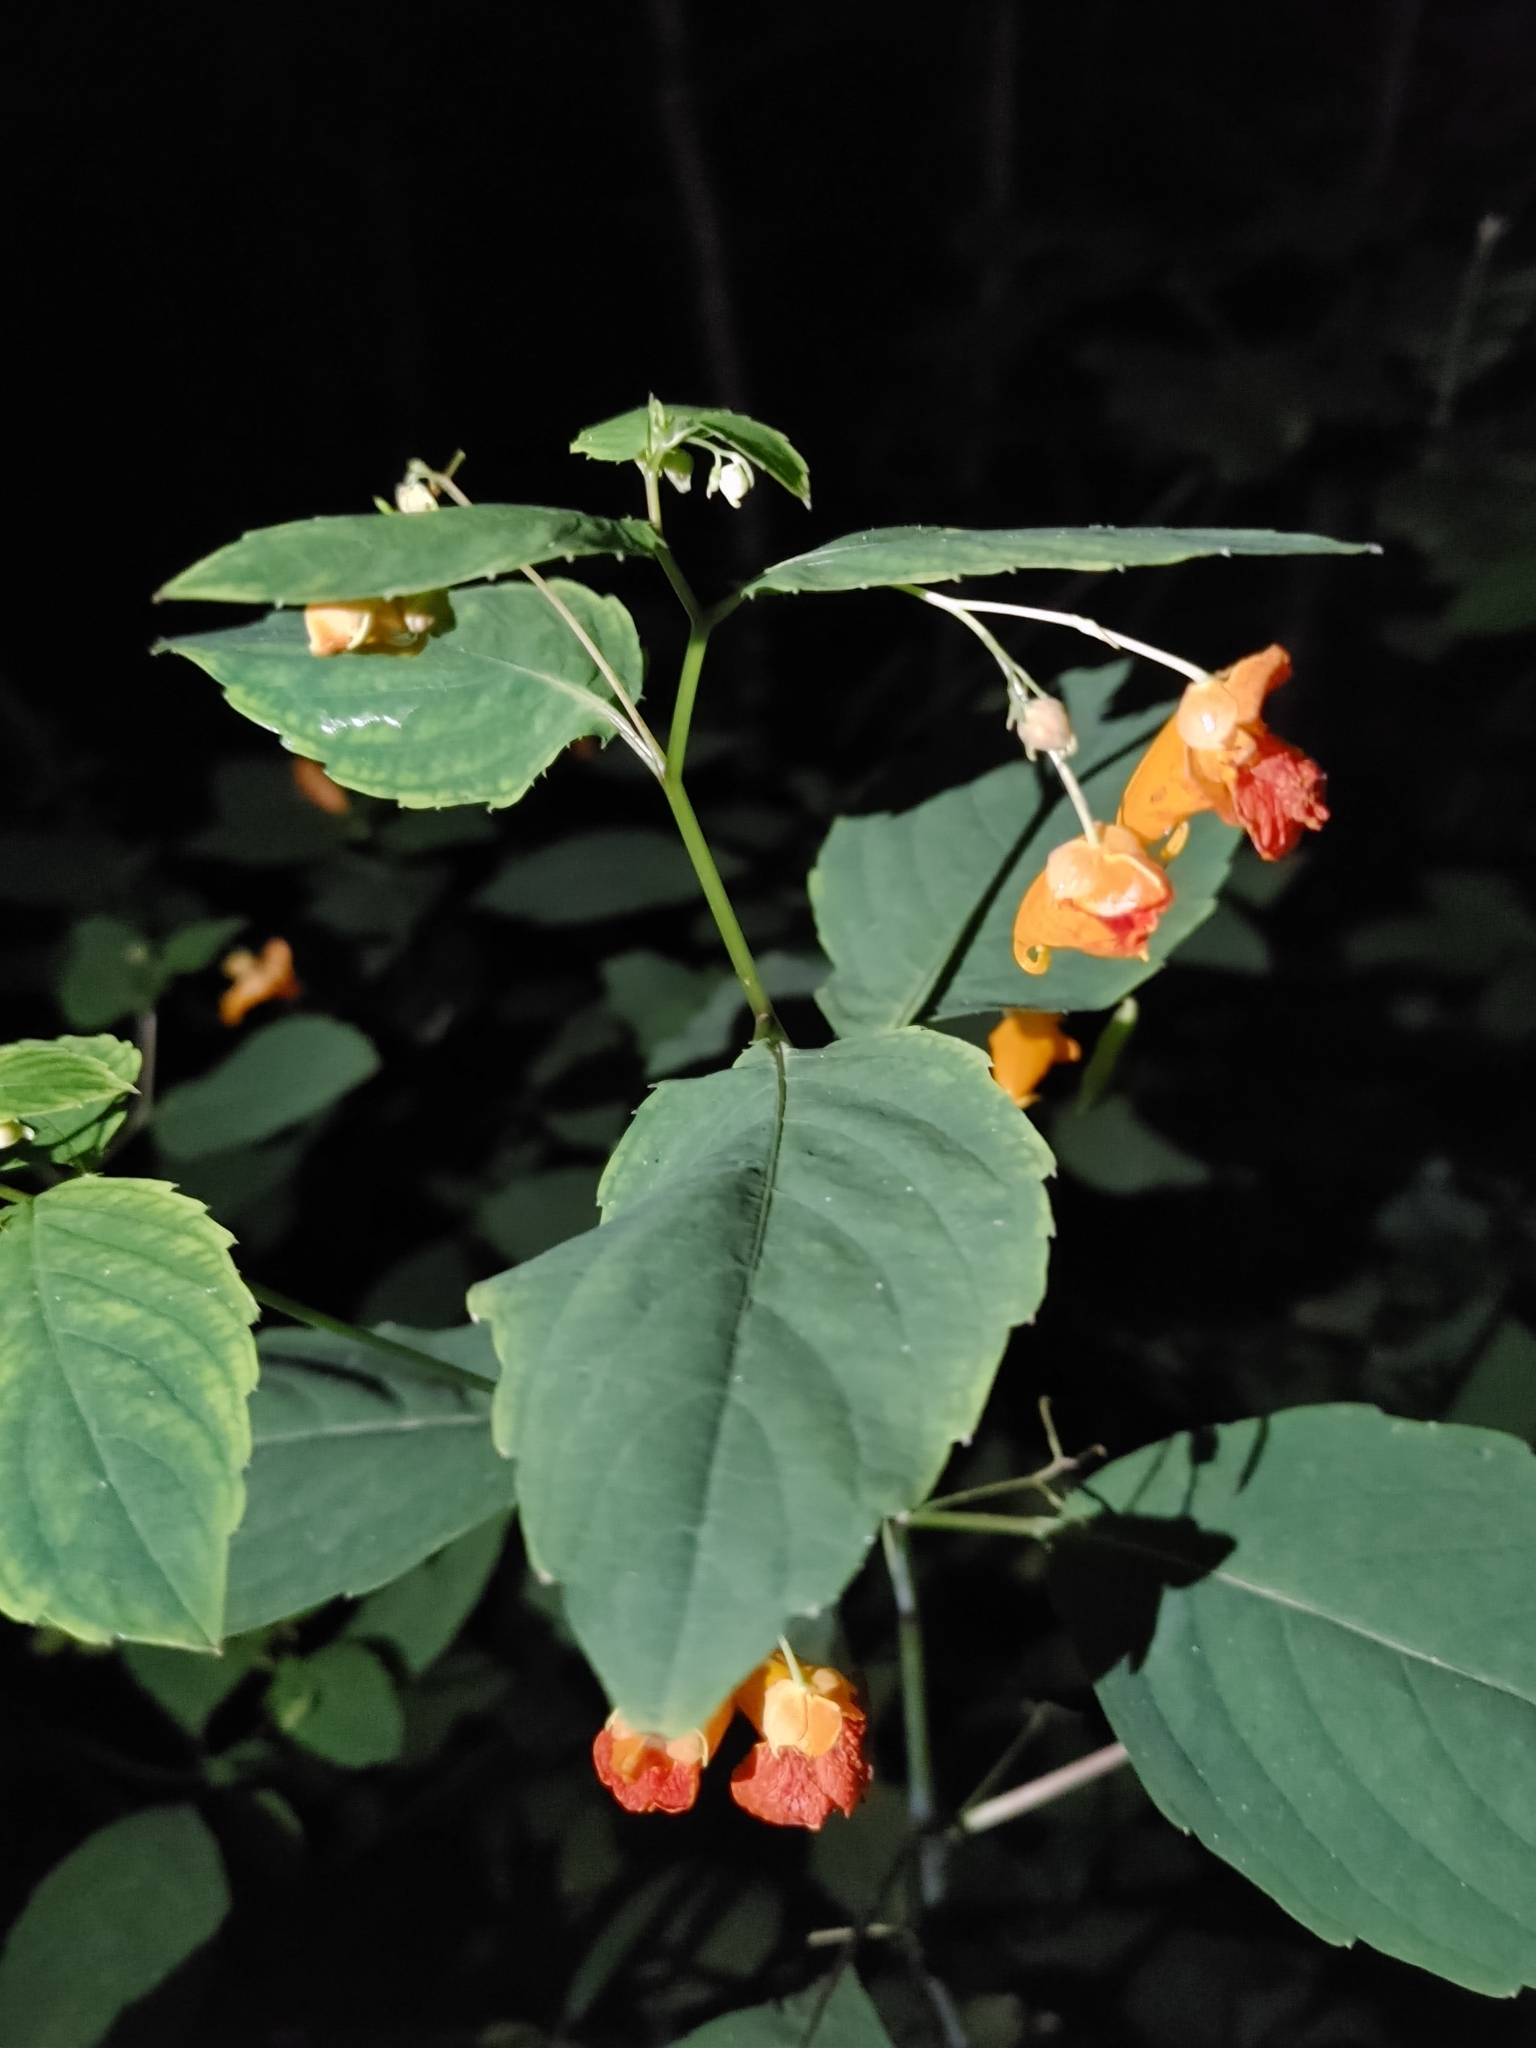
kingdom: Plantae
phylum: Tracheophyta
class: Magnoliopsida
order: Ericales
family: Balsaminaceae
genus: Impatiens
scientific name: Impatiens capensis
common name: Orange balsam
